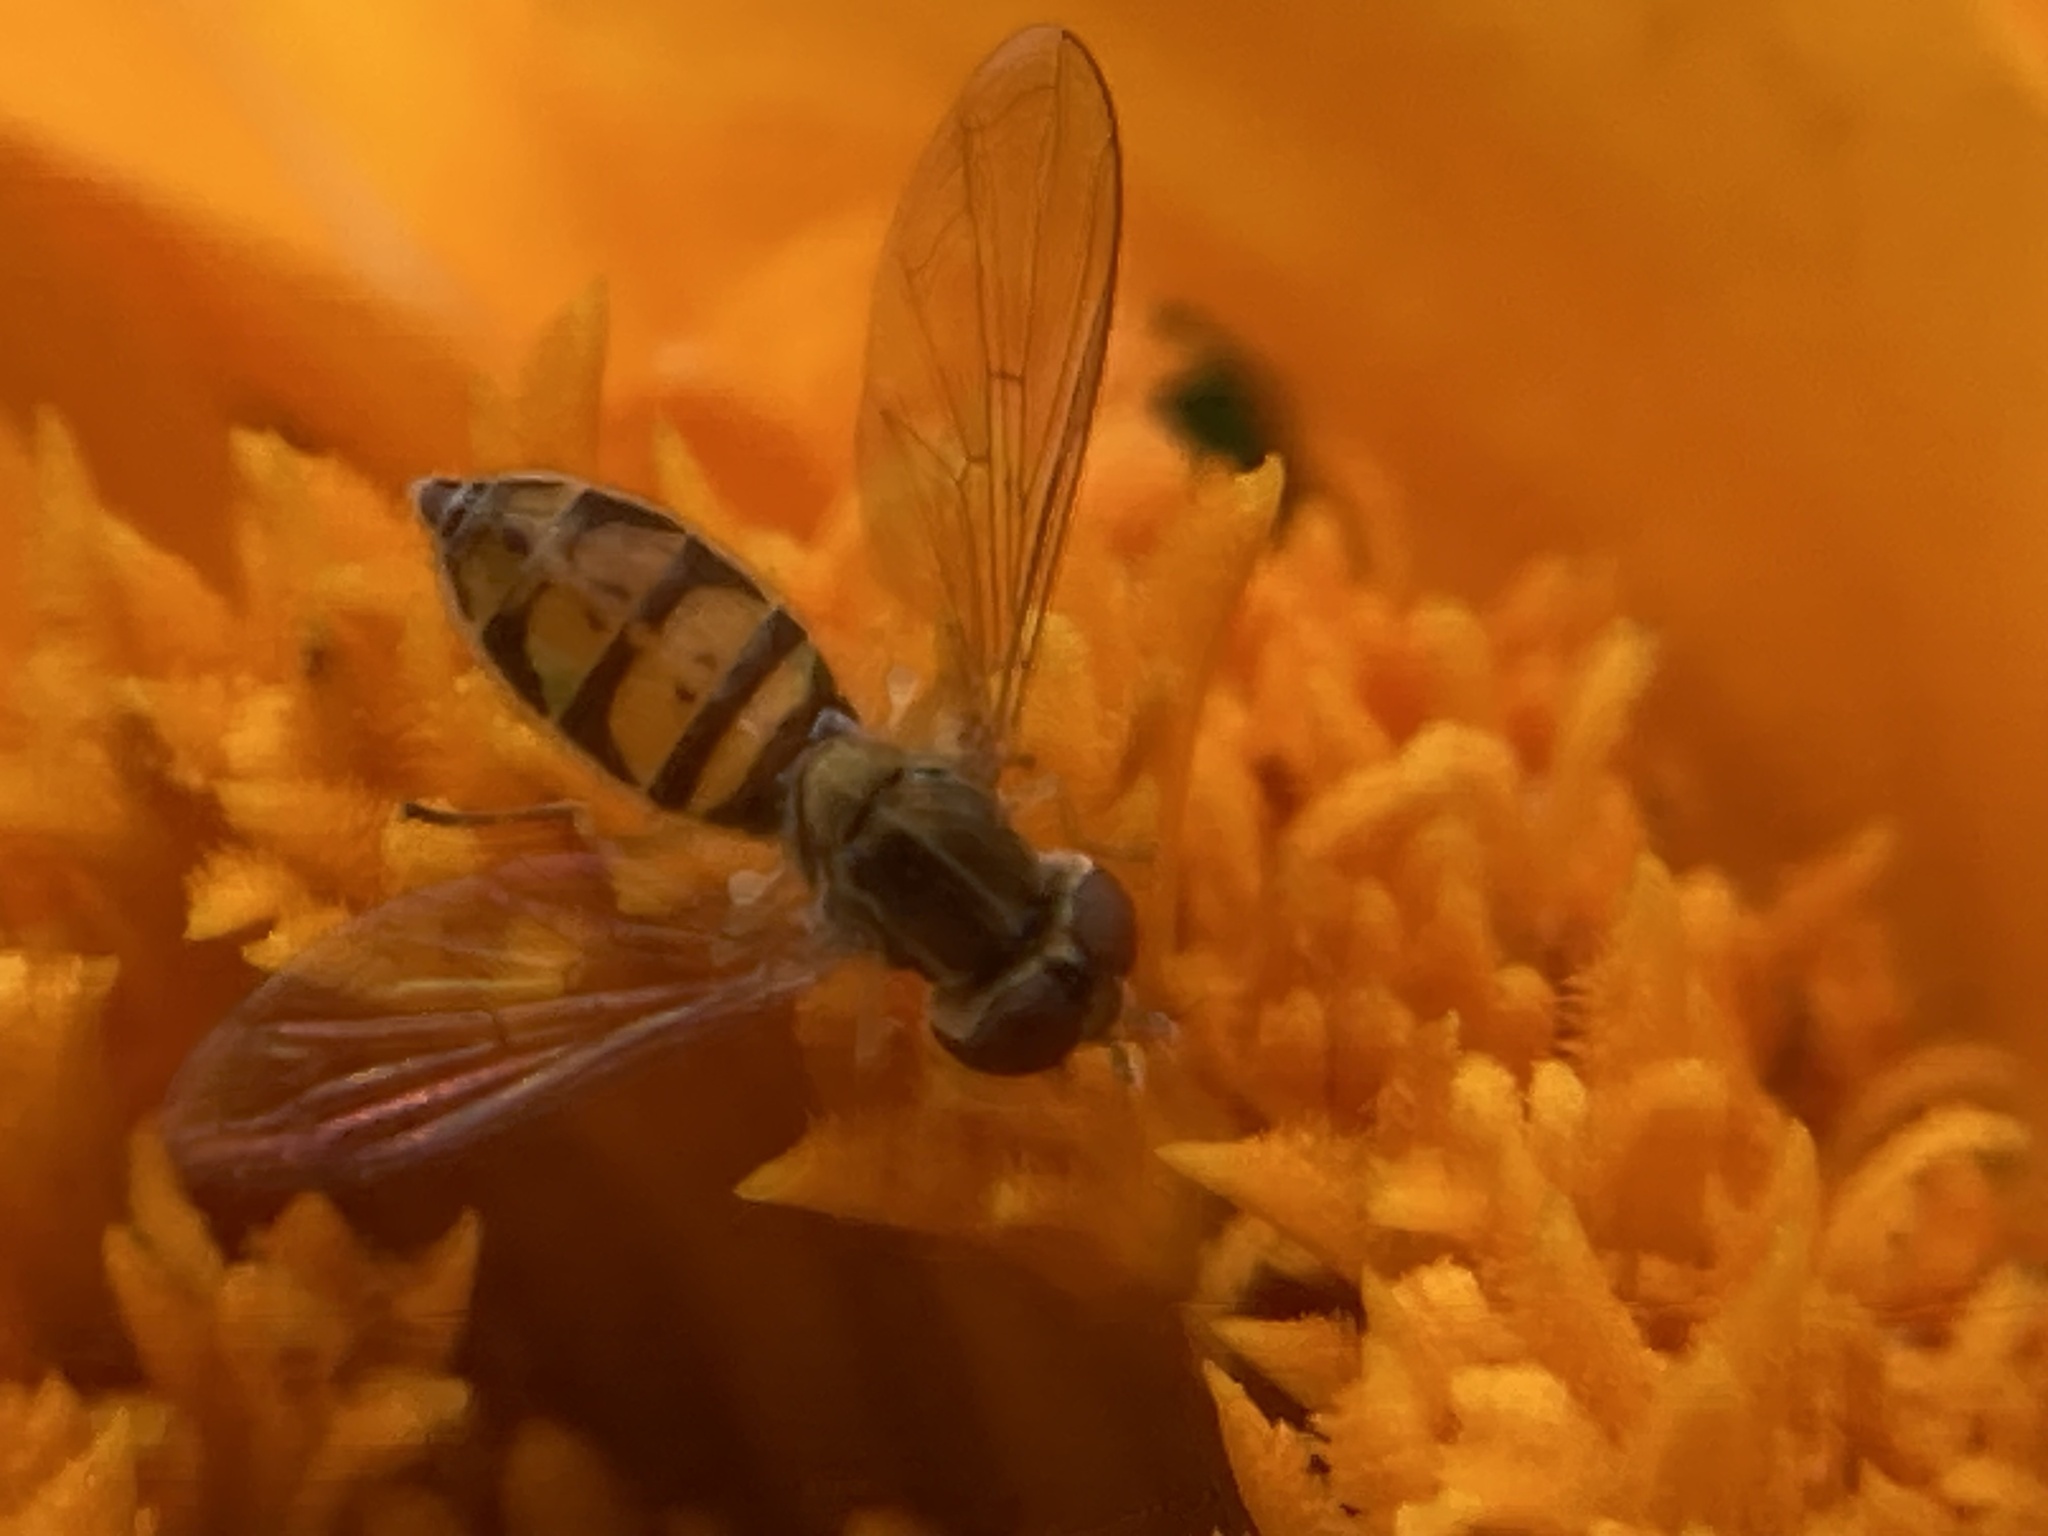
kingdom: Animalia
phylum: Arthropoda
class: Insecta
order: Diptera
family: Syrphidae
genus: Toxomerus
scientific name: Toxomerus marginatus
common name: Syrphid fly
